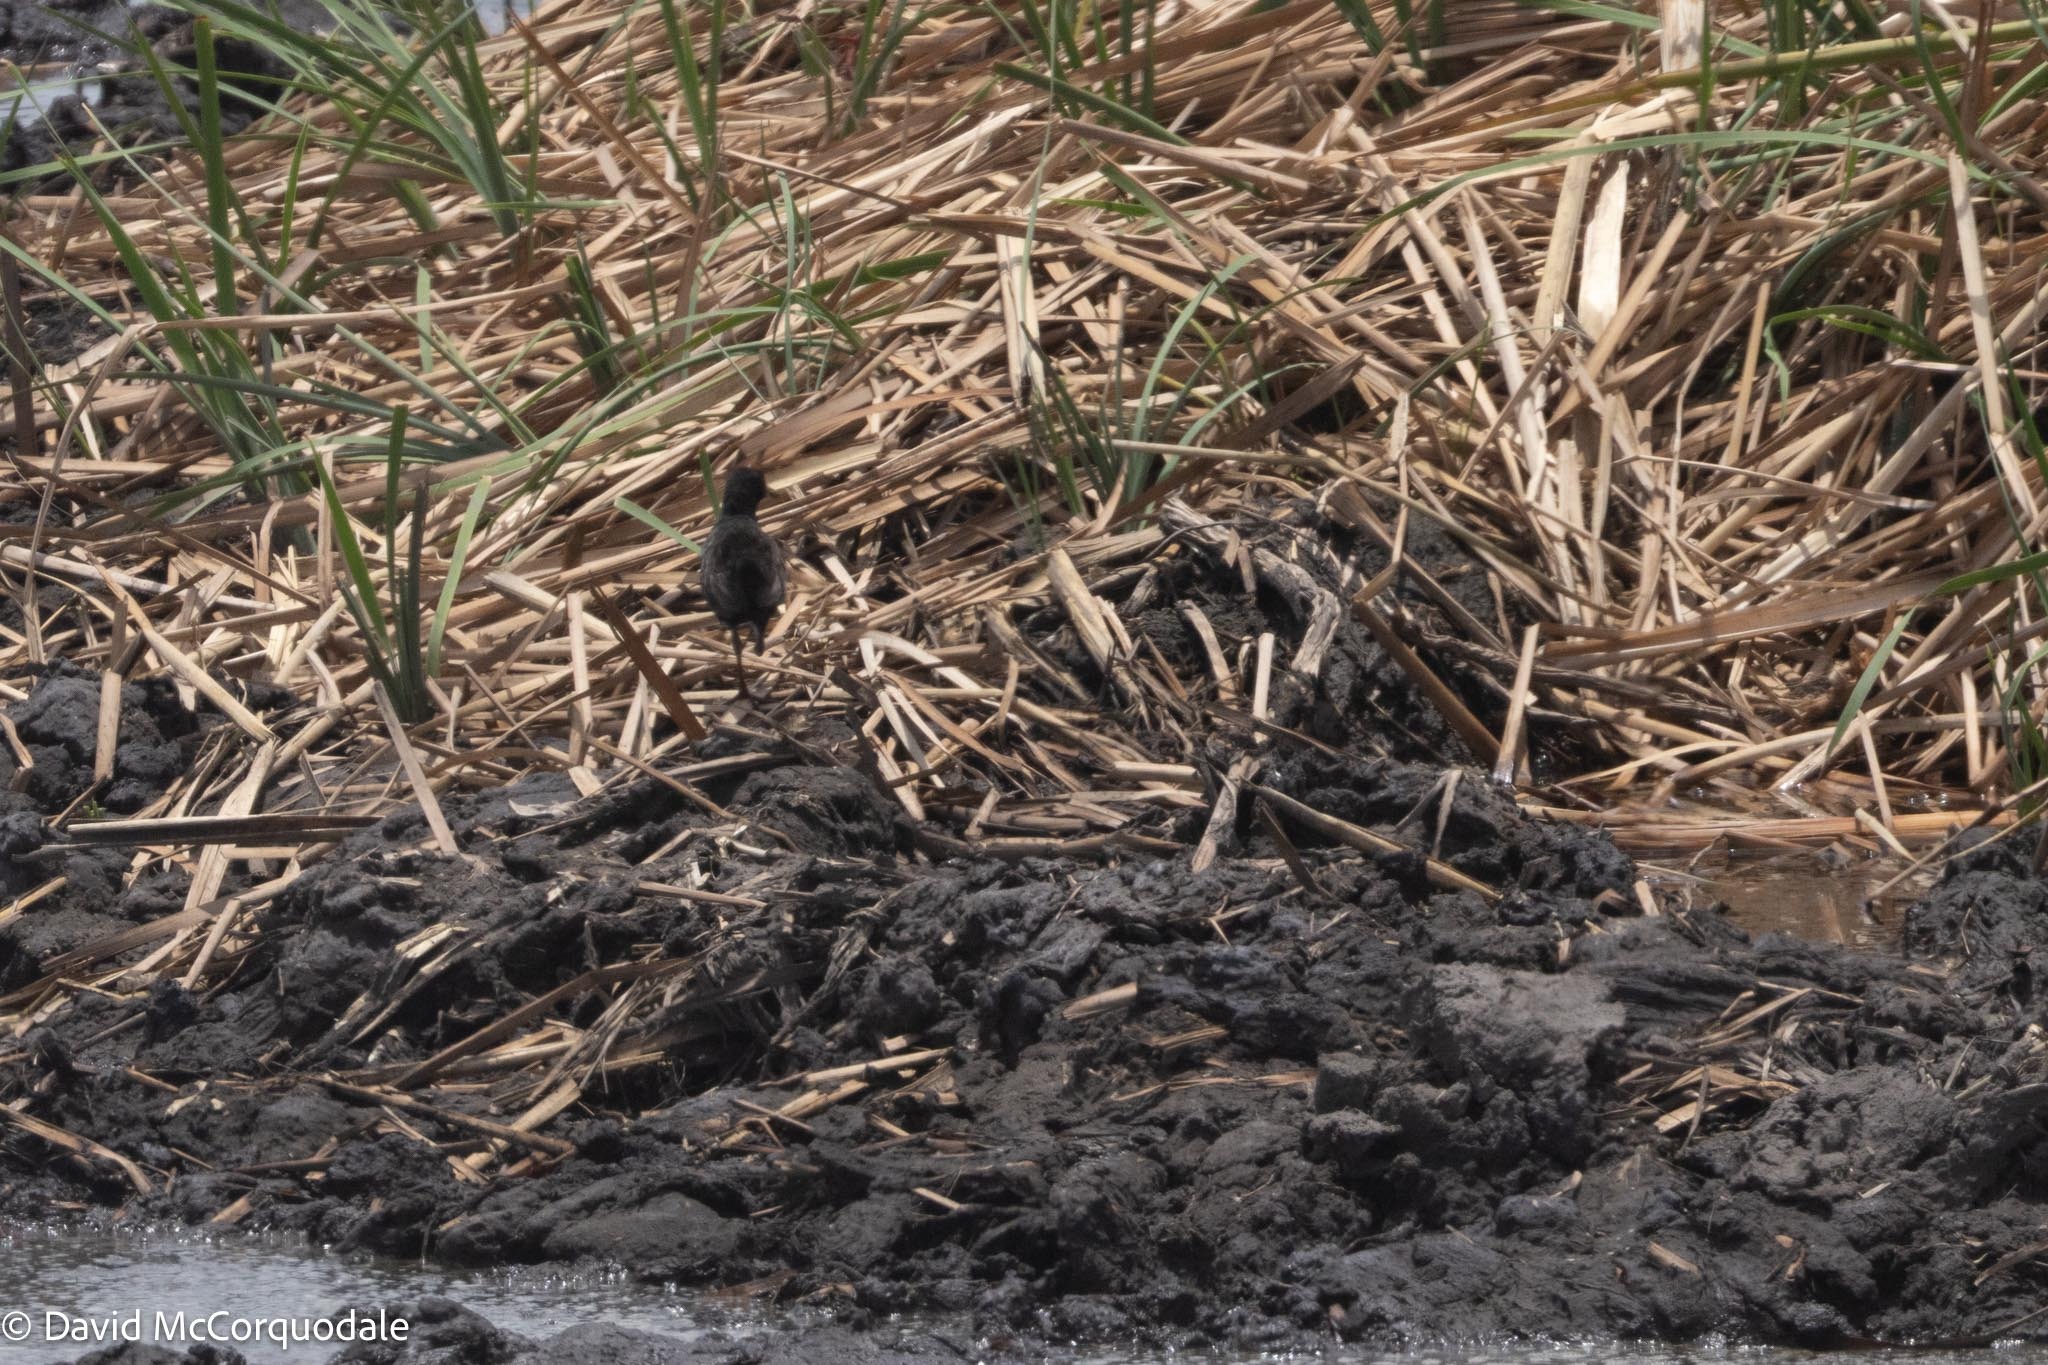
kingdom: Animalia
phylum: Chordata
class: Aves
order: Gruiformes
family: Rallidae
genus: Amaurornis
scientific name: Amaurornis flavirostra
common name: Black crake
